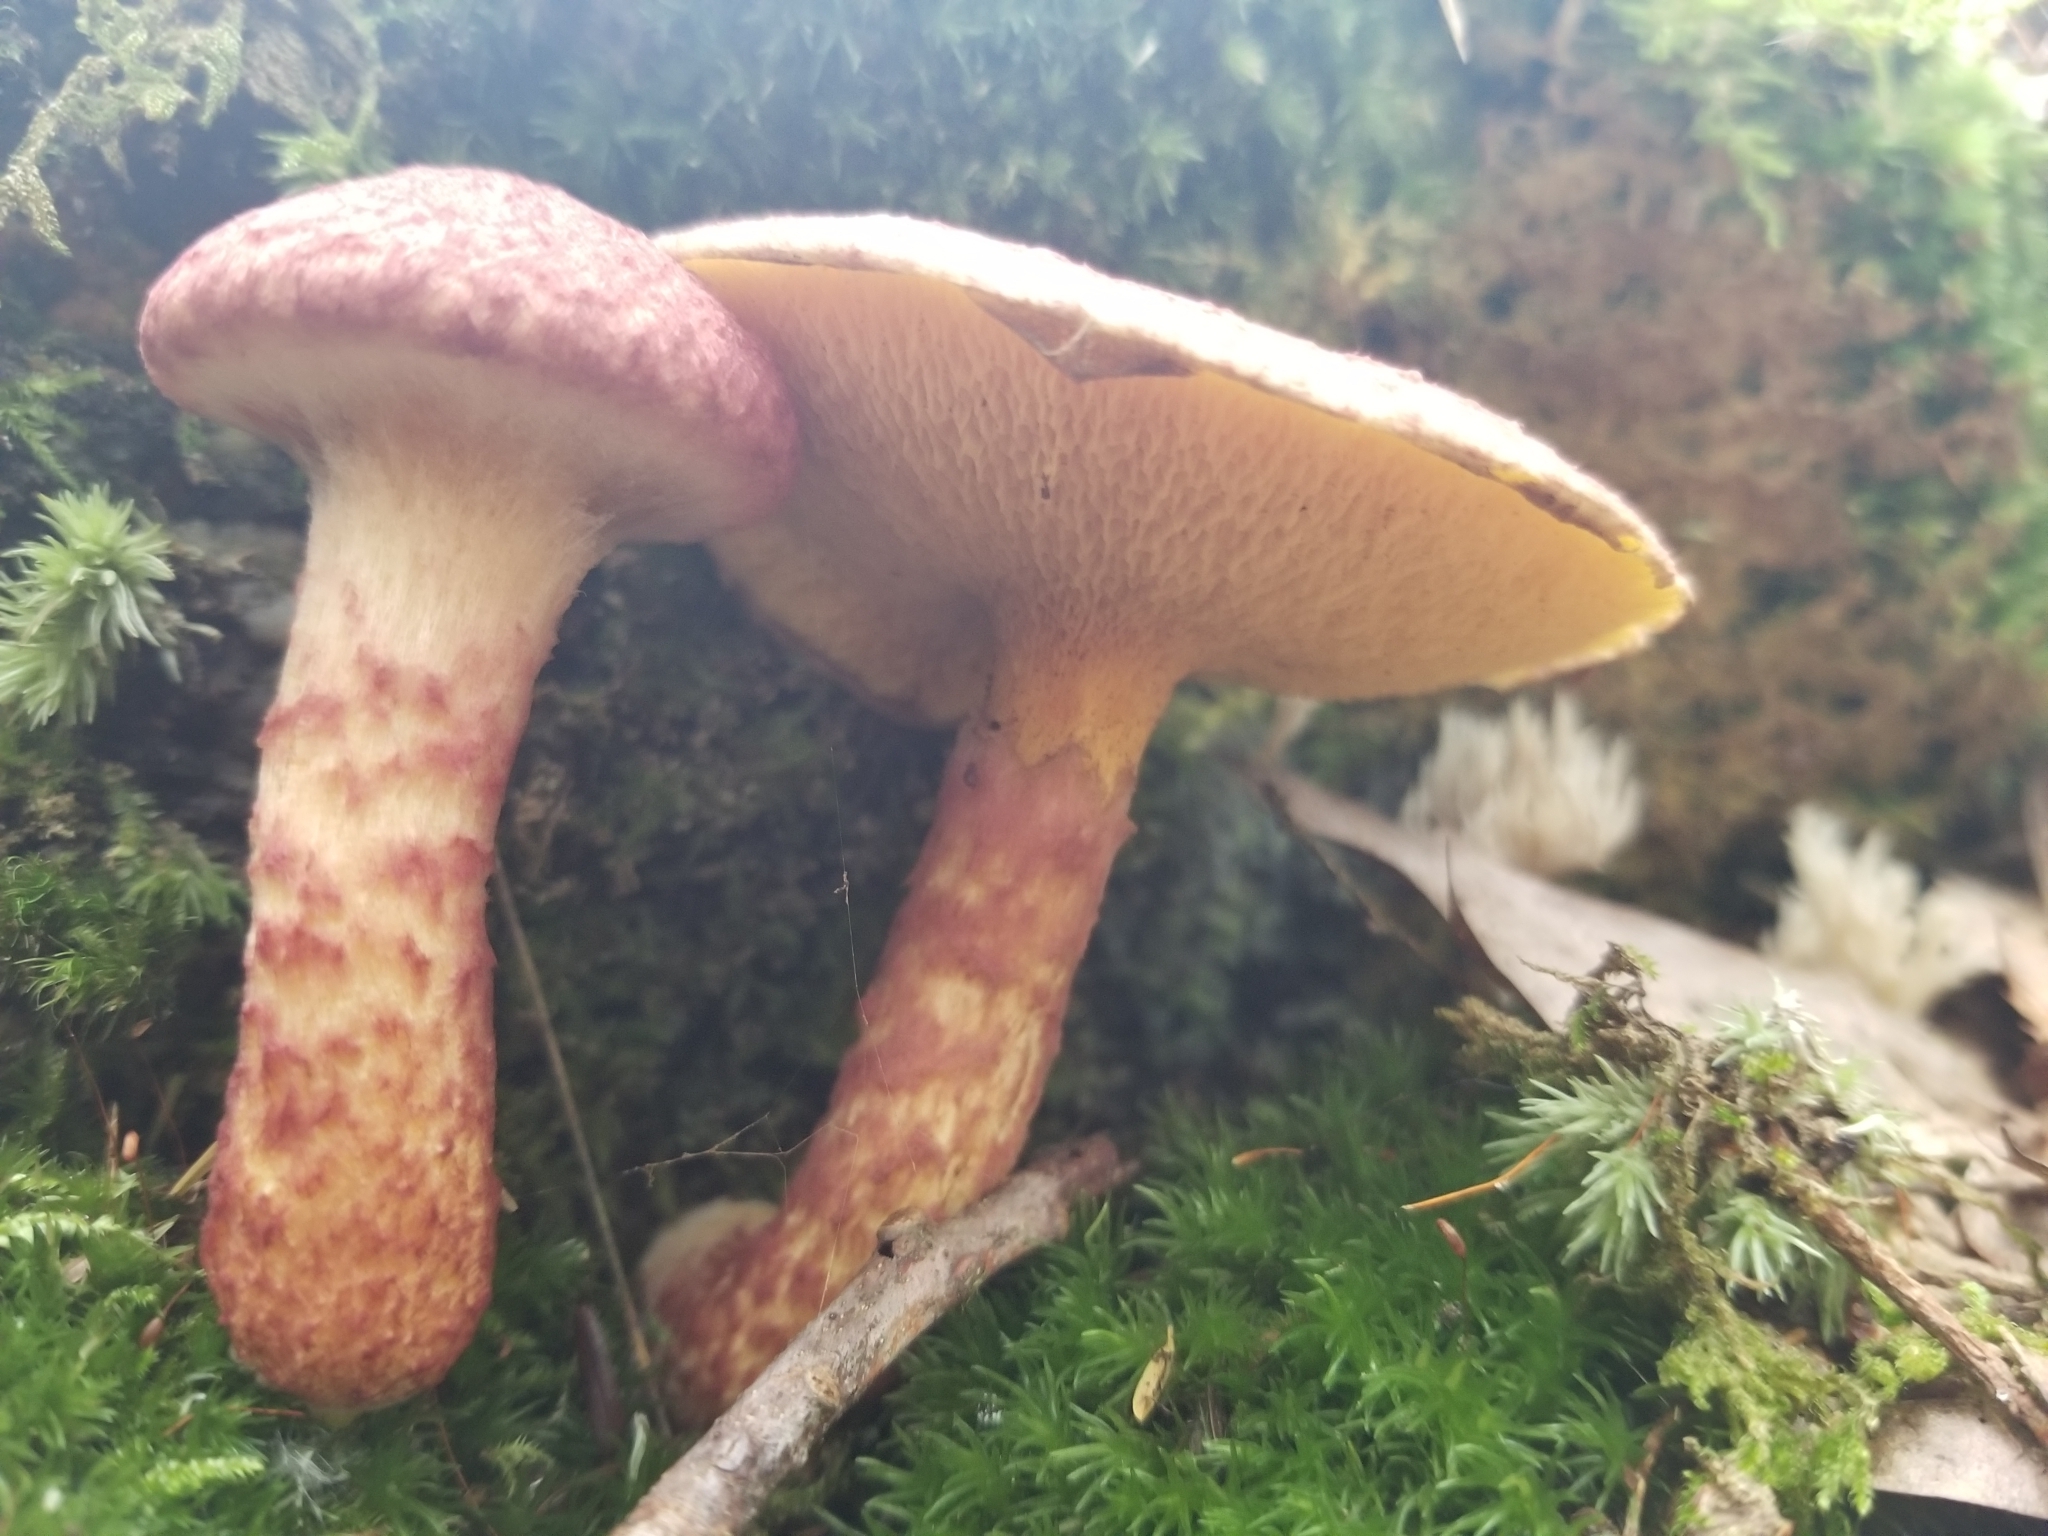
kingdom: Fungi
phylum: Basidiomycota
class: Agaricomycetes
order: Boletales
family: Suillaceae
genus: Suillus
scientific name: Suillus spraguei
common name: Painted suillus
